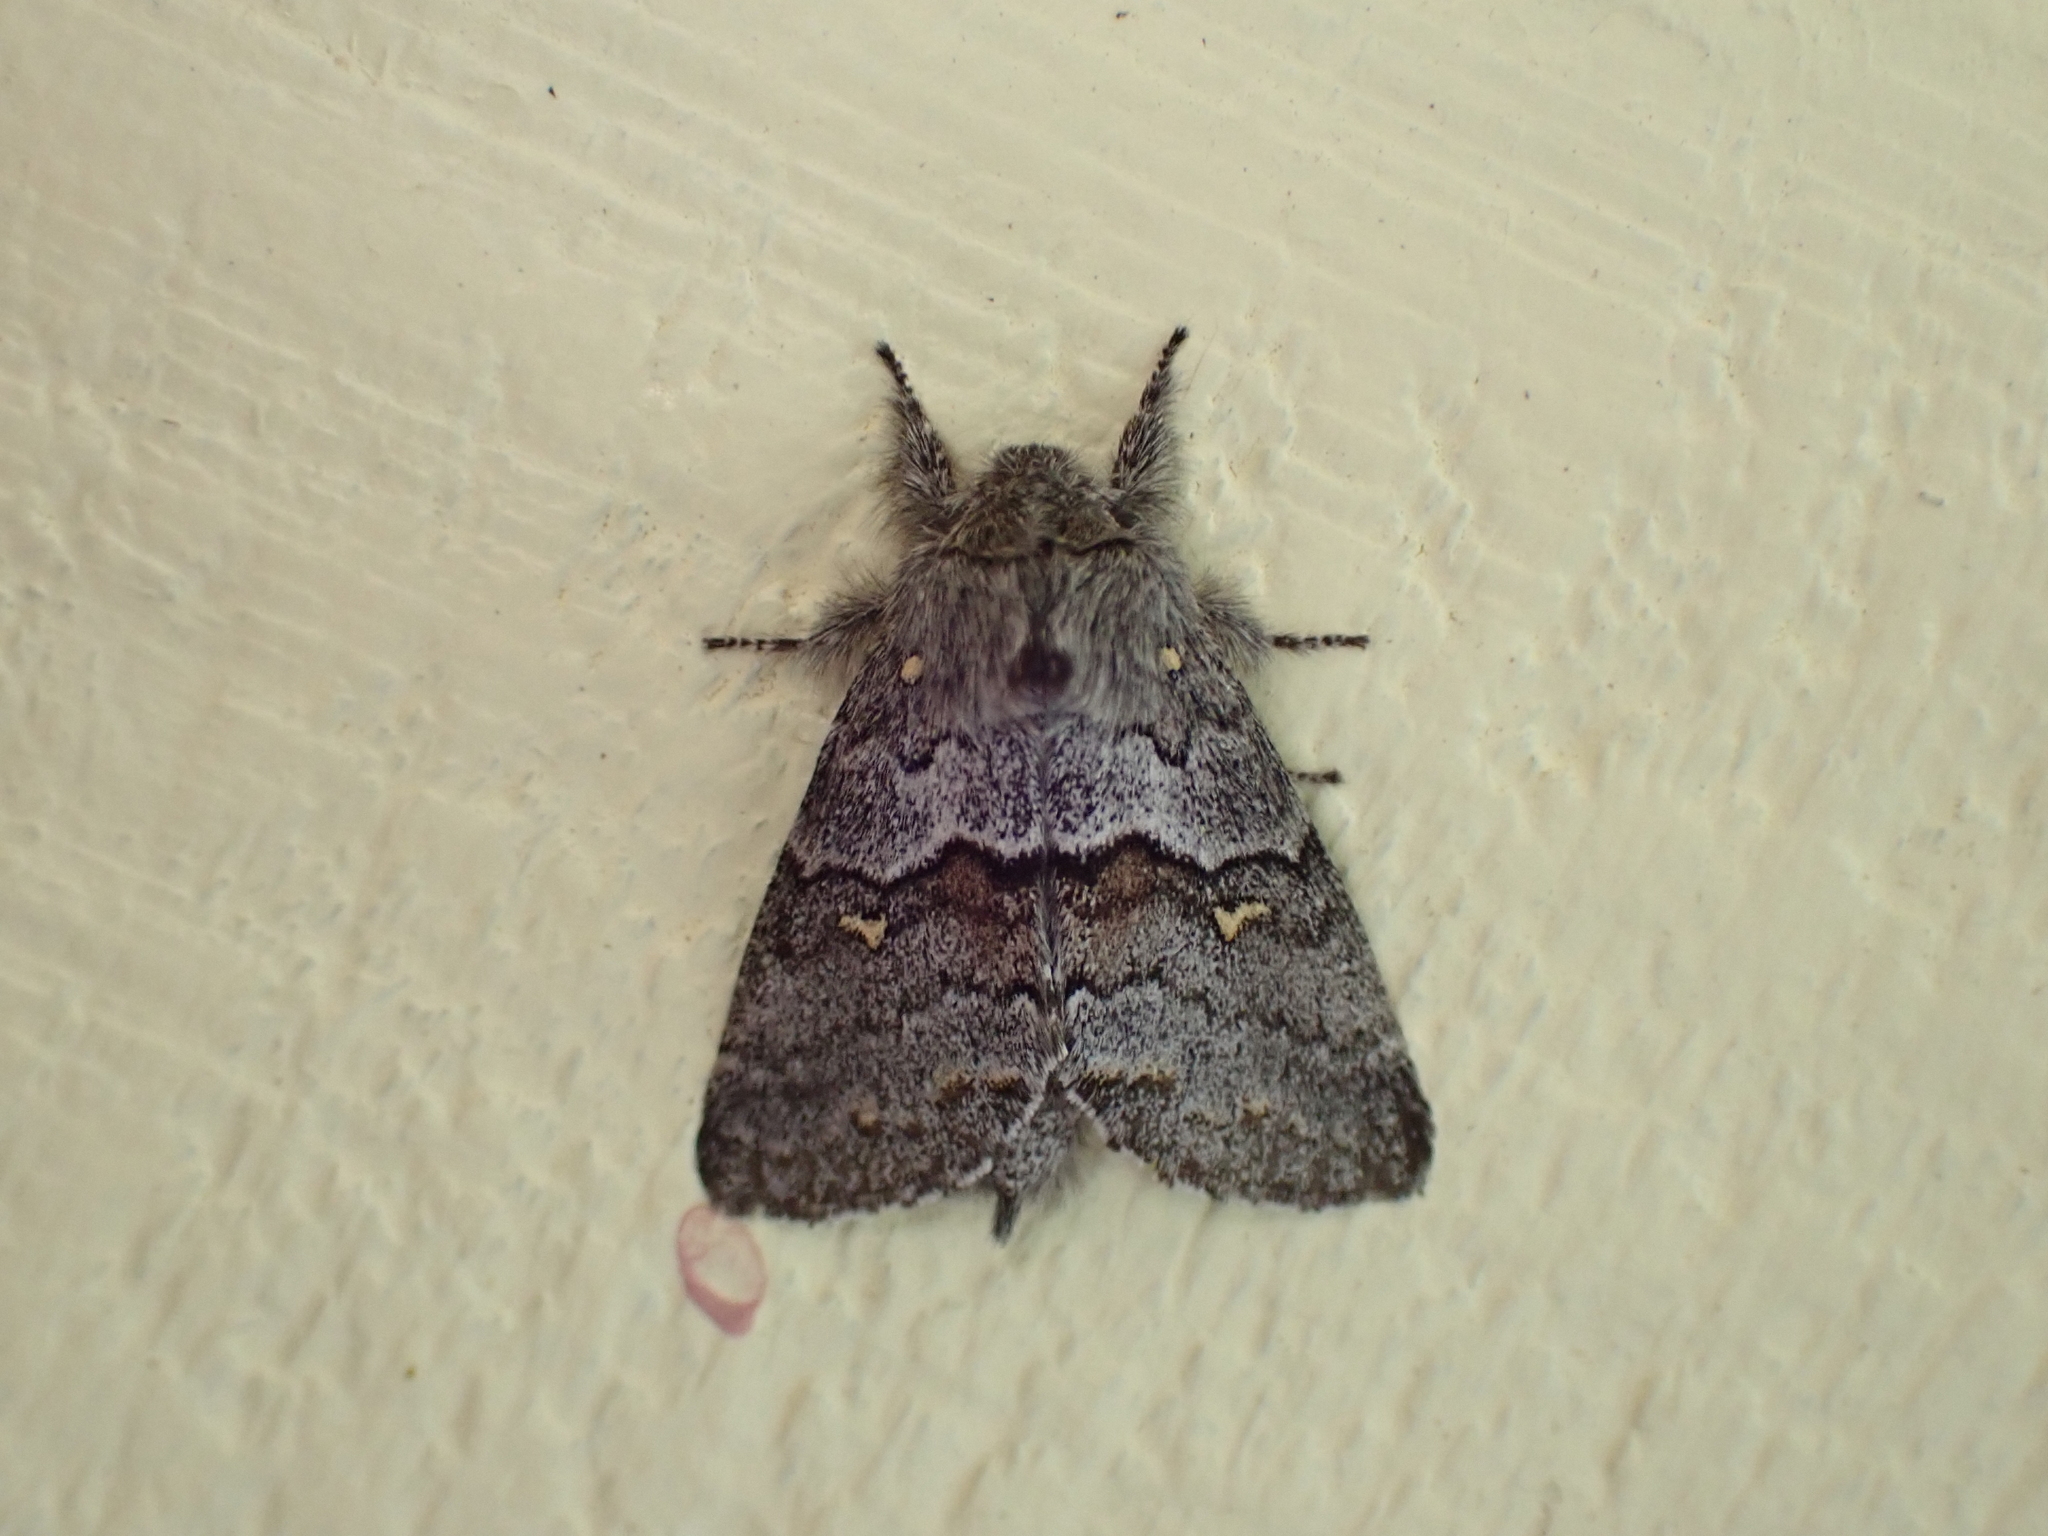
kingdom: Animalia
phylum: Arthropoda
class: Insecta
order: Lepidoptera
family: Notodontidae
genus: Gluphisia
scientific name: Gluphisia avimacula
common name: Four-spotted gluphisia moth
